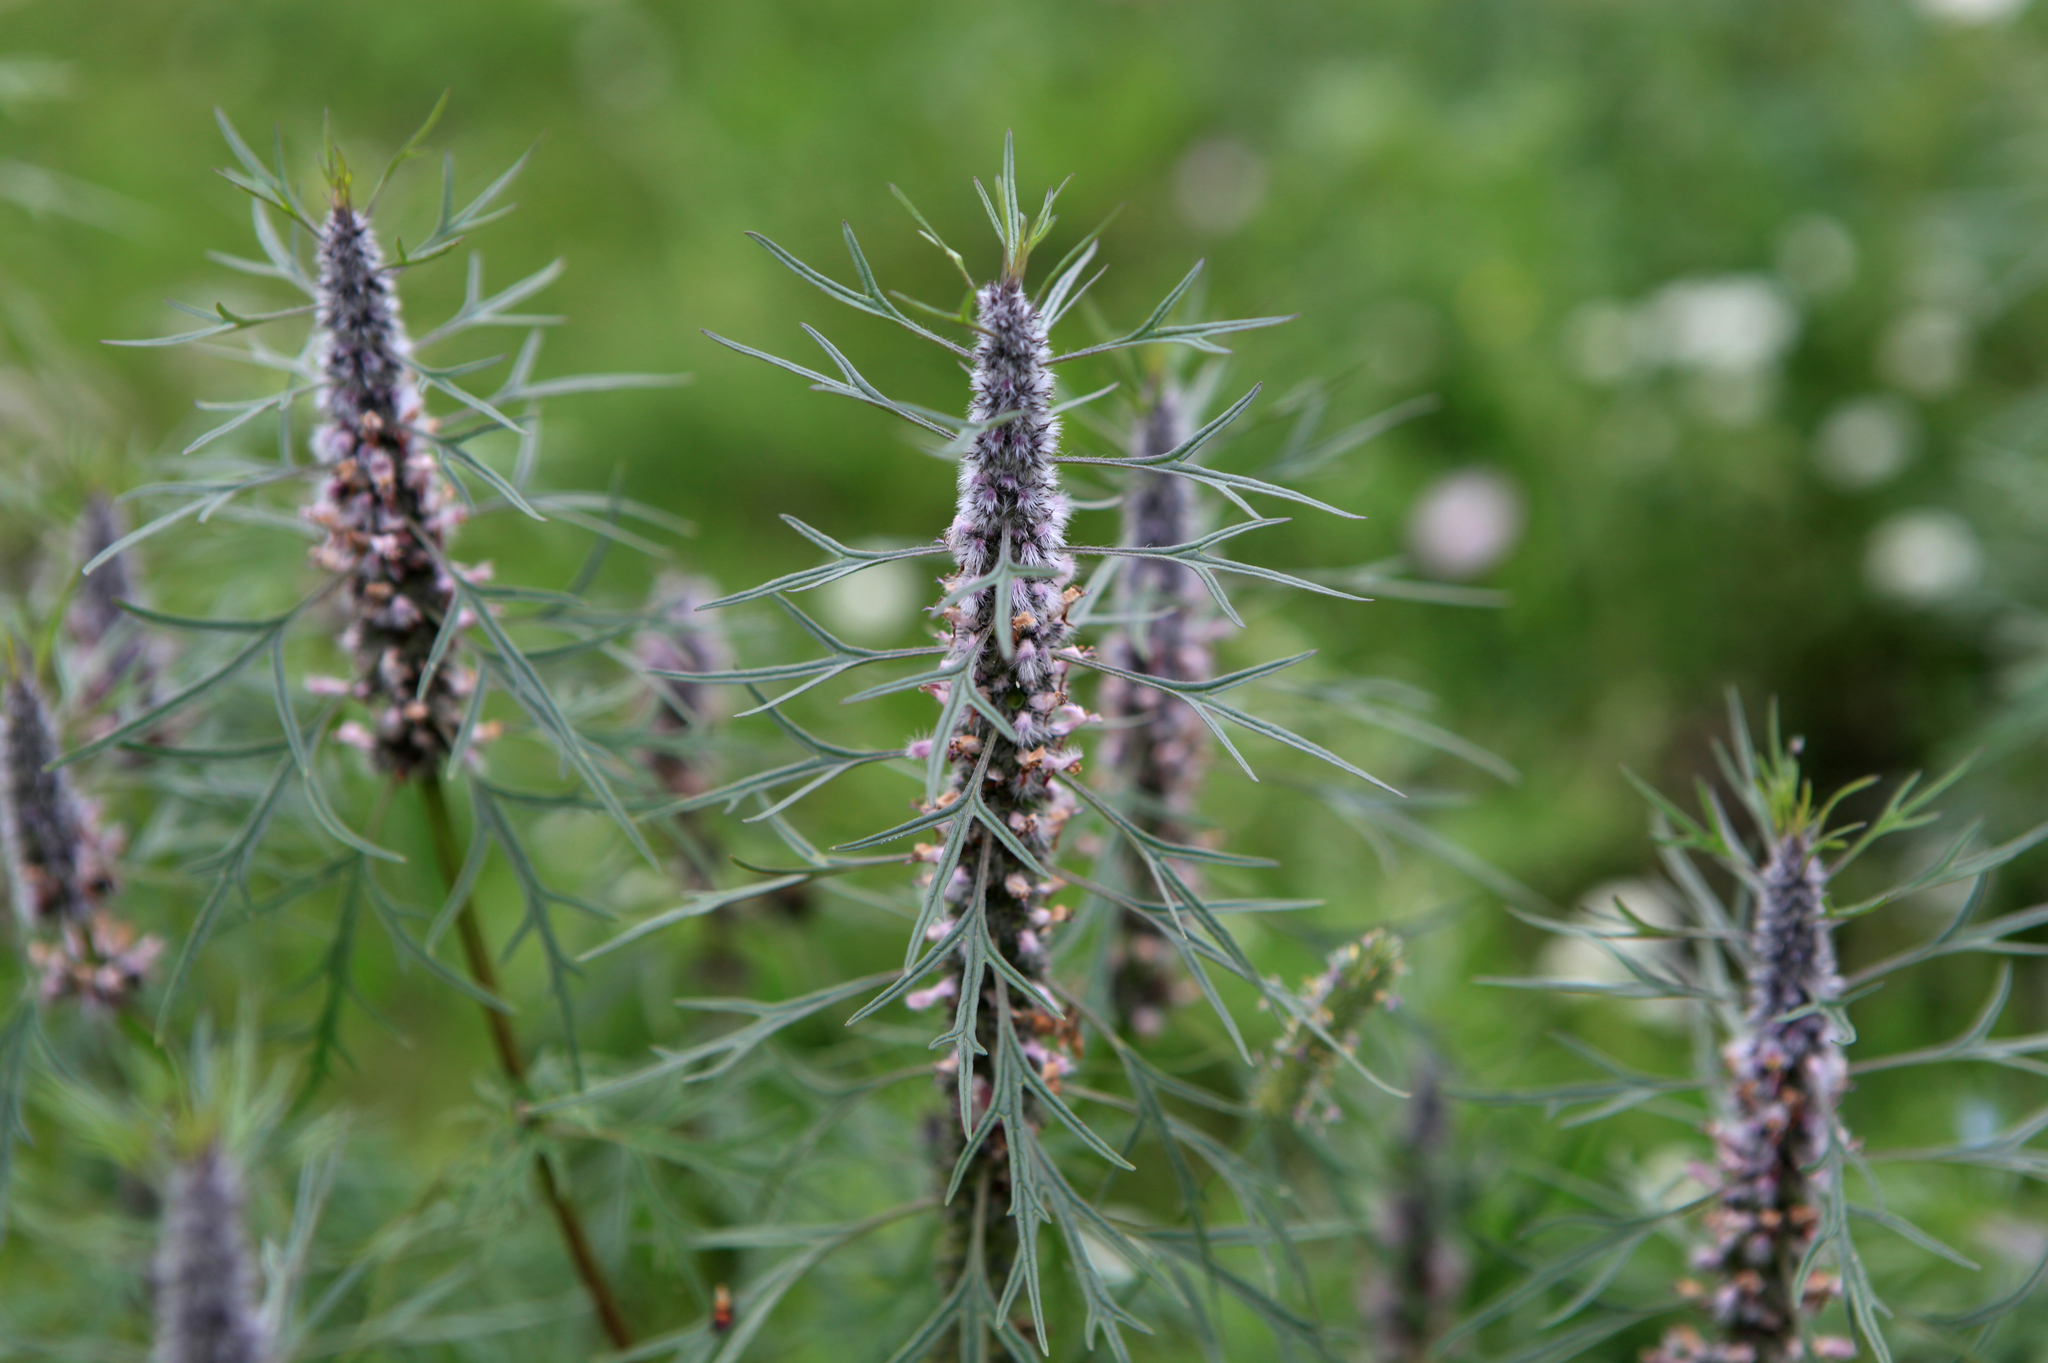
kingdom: Plantae
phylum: Tracheophyta
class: Magnoliopsida
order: Lamiales
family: Lamiaceae
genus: Leonurus
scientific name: Leonurus glaucescens
